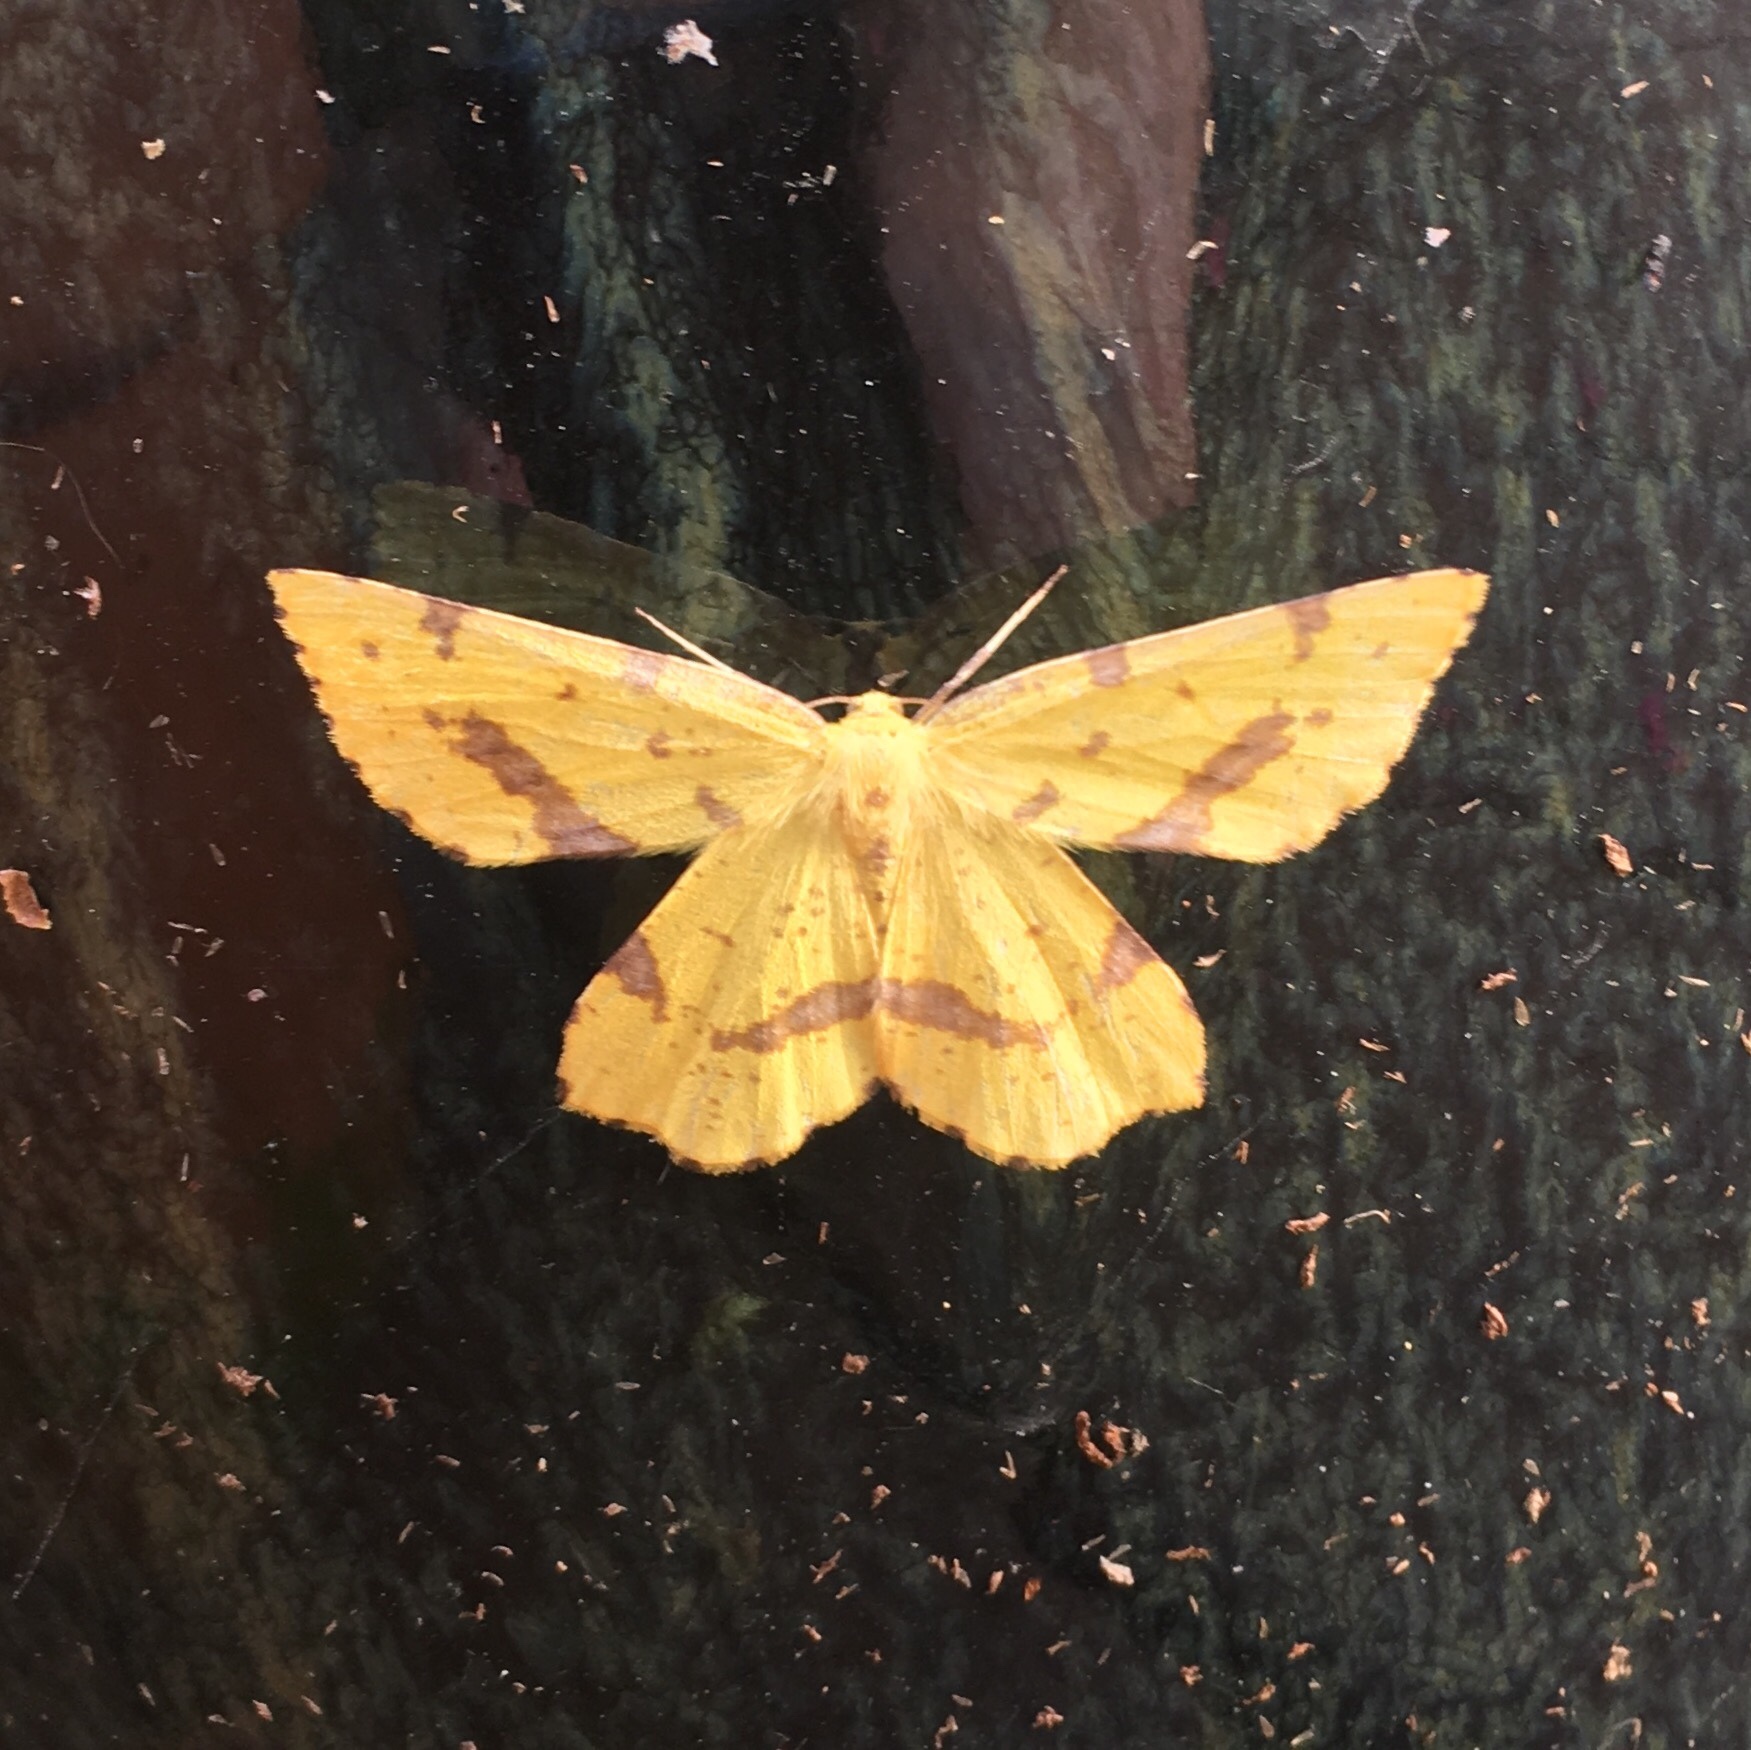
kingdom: Animalia
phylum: Arthropoda
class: Insecta
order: Lepidoptera
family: Geometridae
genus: Xanthotype
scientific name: Xanthotype
